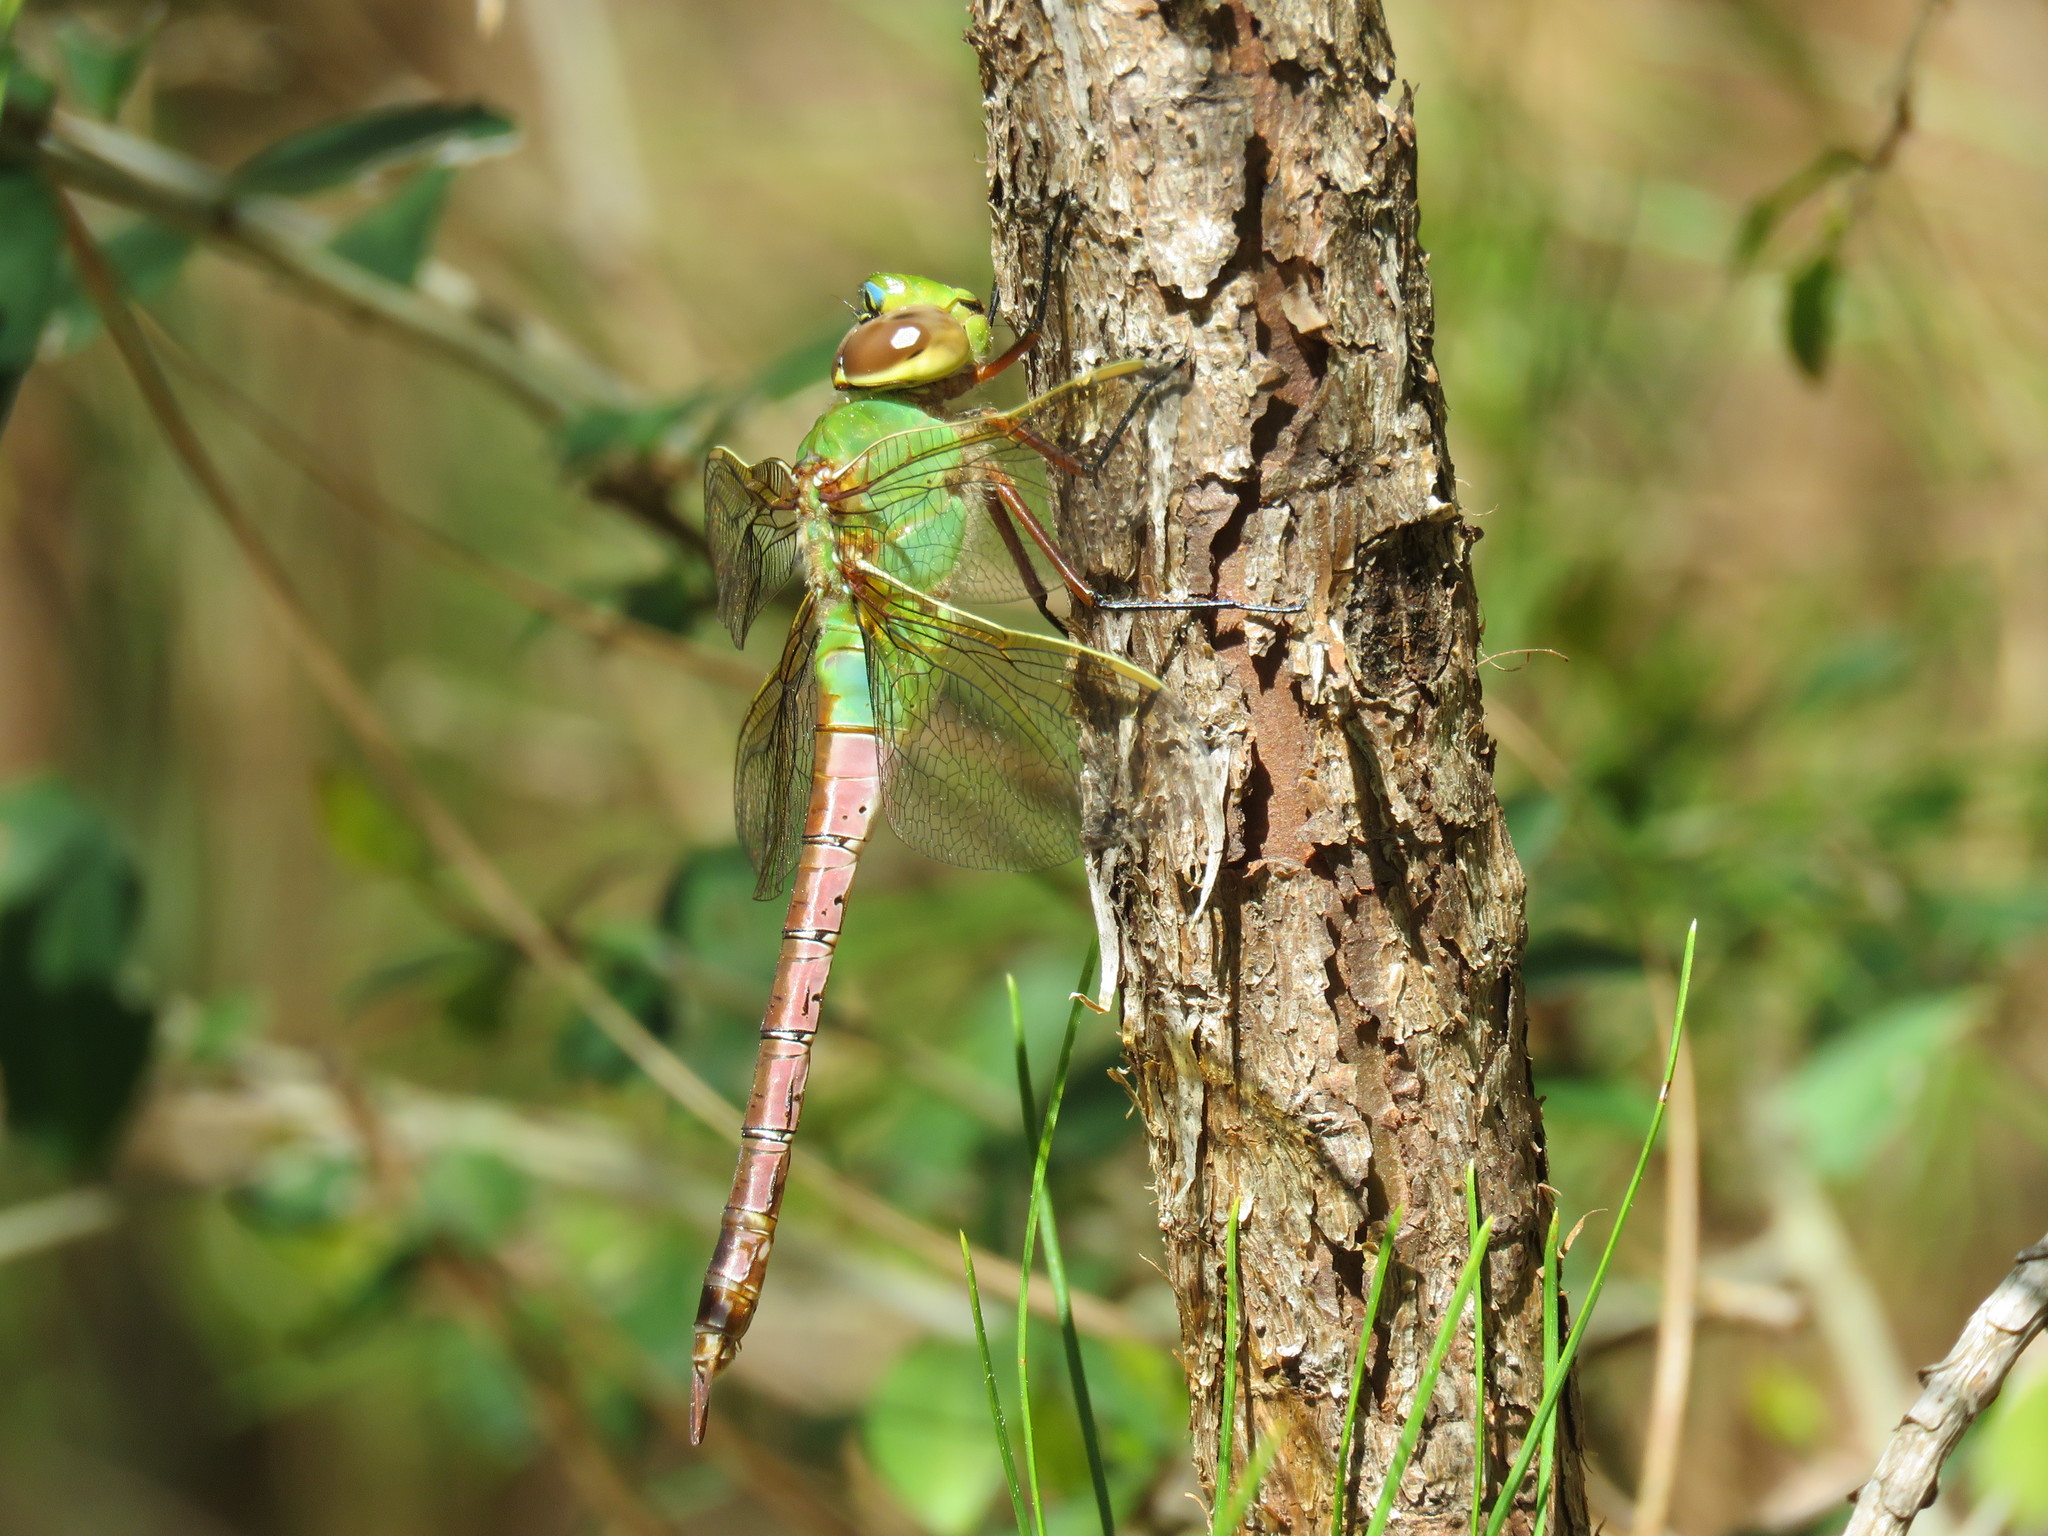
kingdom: Animalia
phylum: Arthropoda
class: Insecta
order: Odonata
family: Aeshnidae
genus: Anax
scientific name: Anax junius
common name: Common green darner
